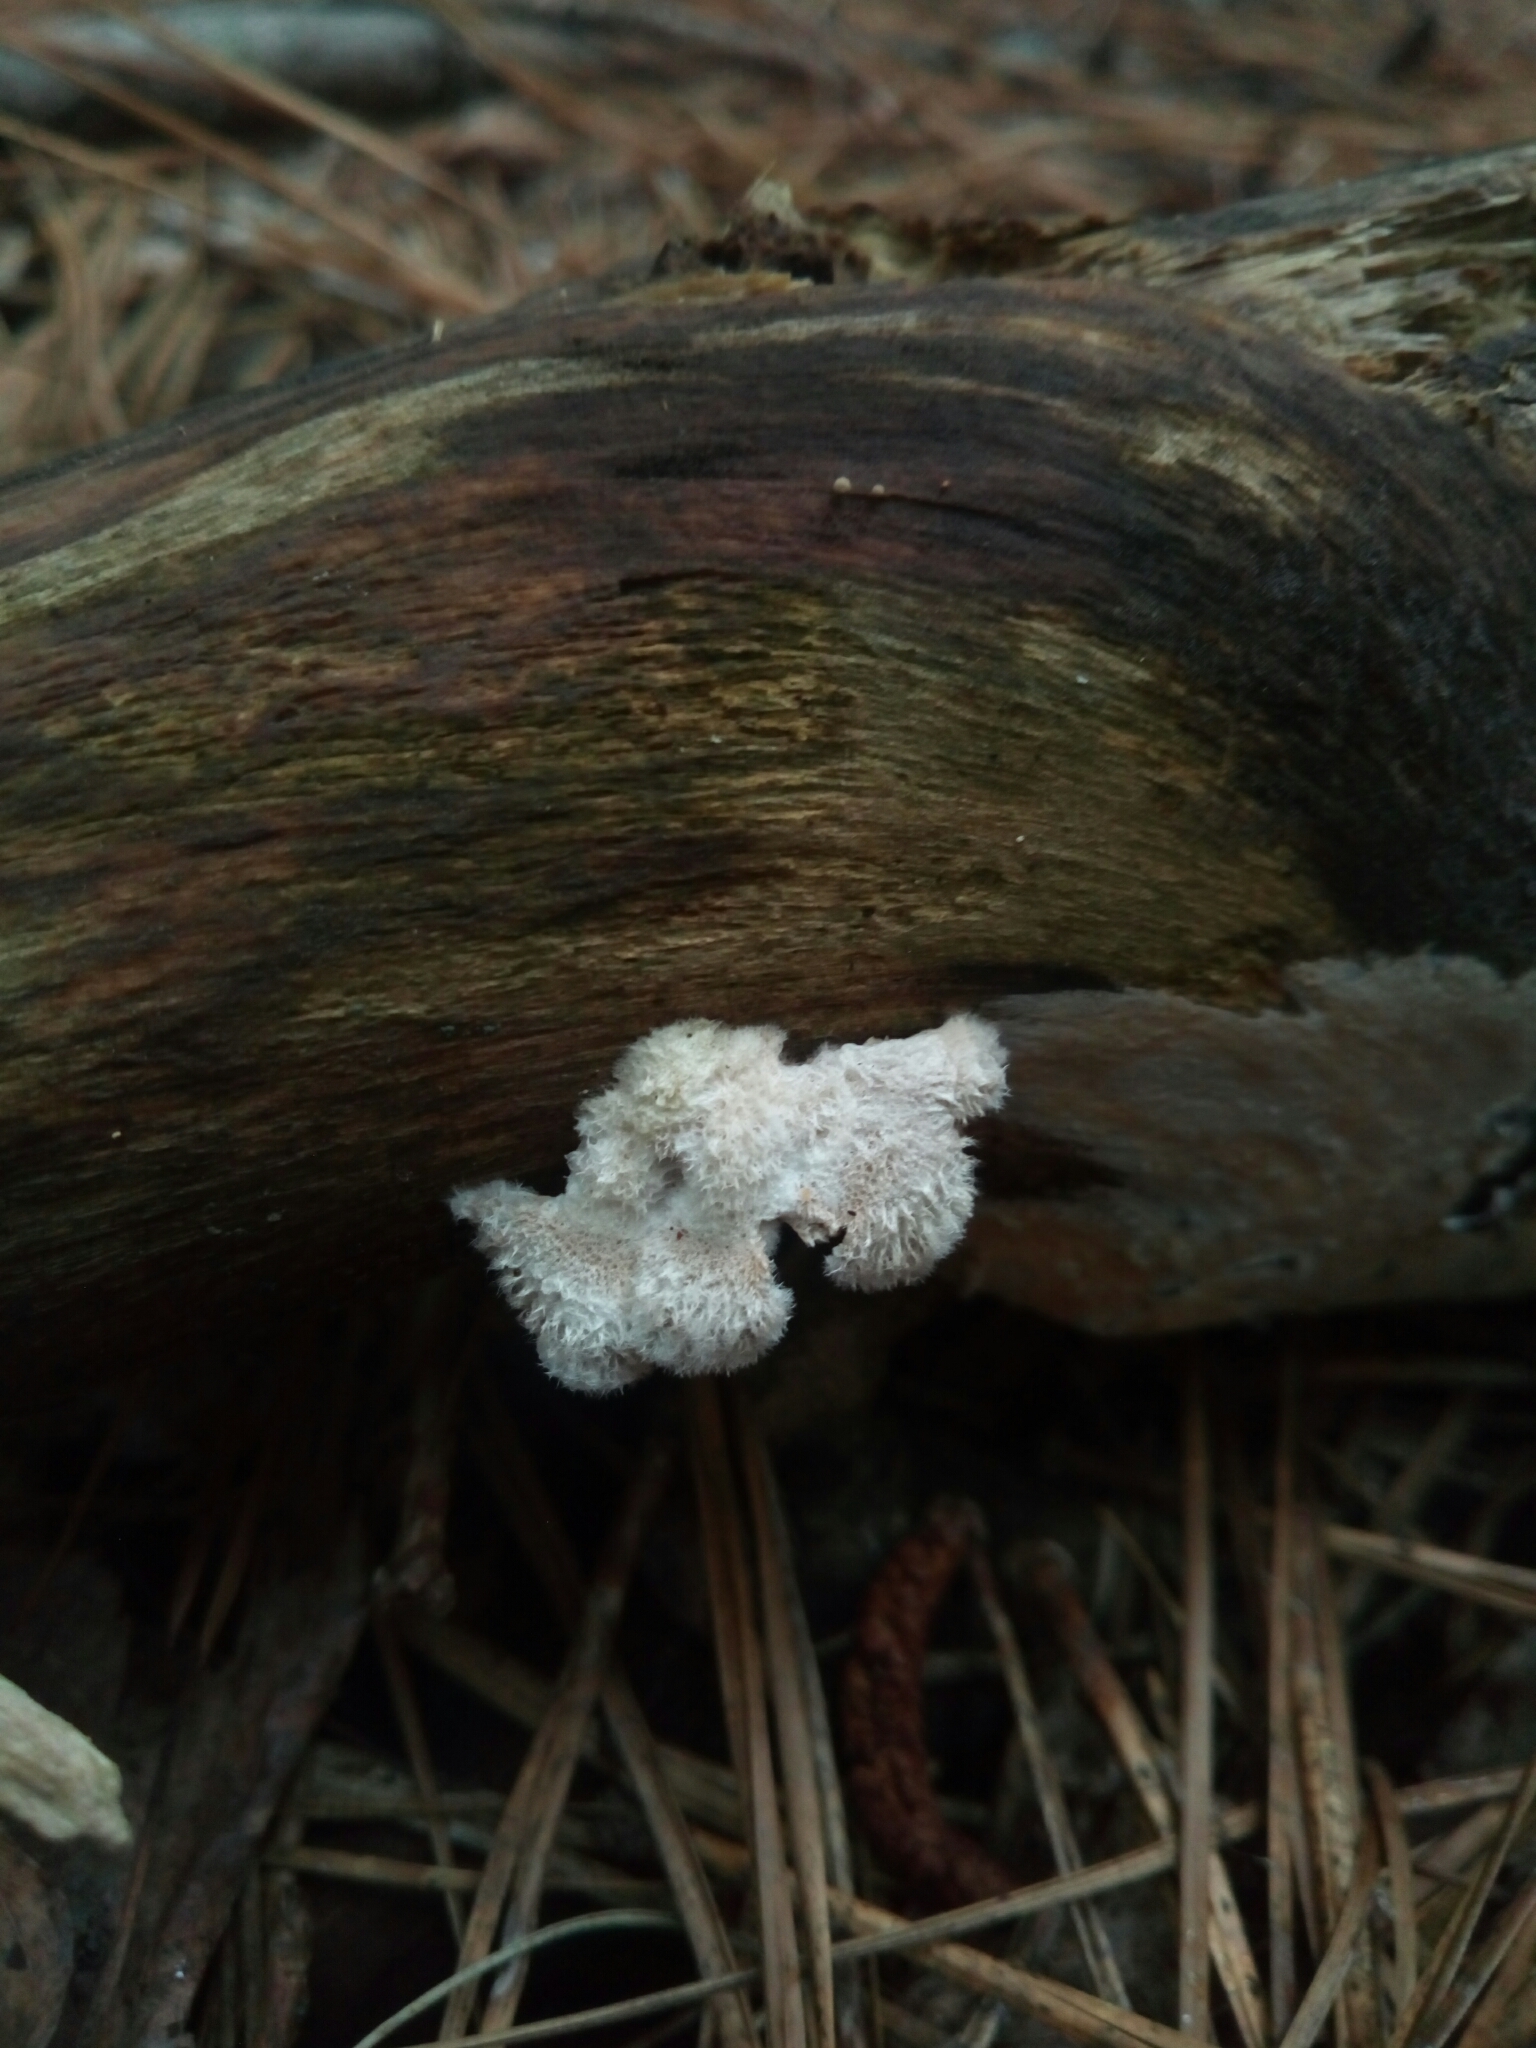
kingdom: Fungi
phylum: Basidiomycota
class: Agaricomycetes
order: Agaricales
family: Schizophyllaceae
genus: Schizophyllum
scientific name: Schizophyllum commune
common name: Common porecrust
